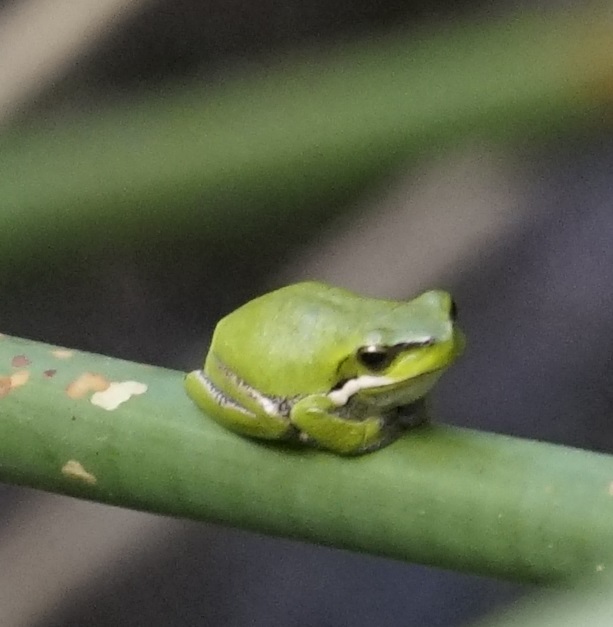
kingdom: Animalia
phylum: Chordata
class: Amphibia
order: Anura
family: Pelodryadidae
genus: Litoria
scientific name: Litoria fallax
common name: Eastern dwarf treefrog
